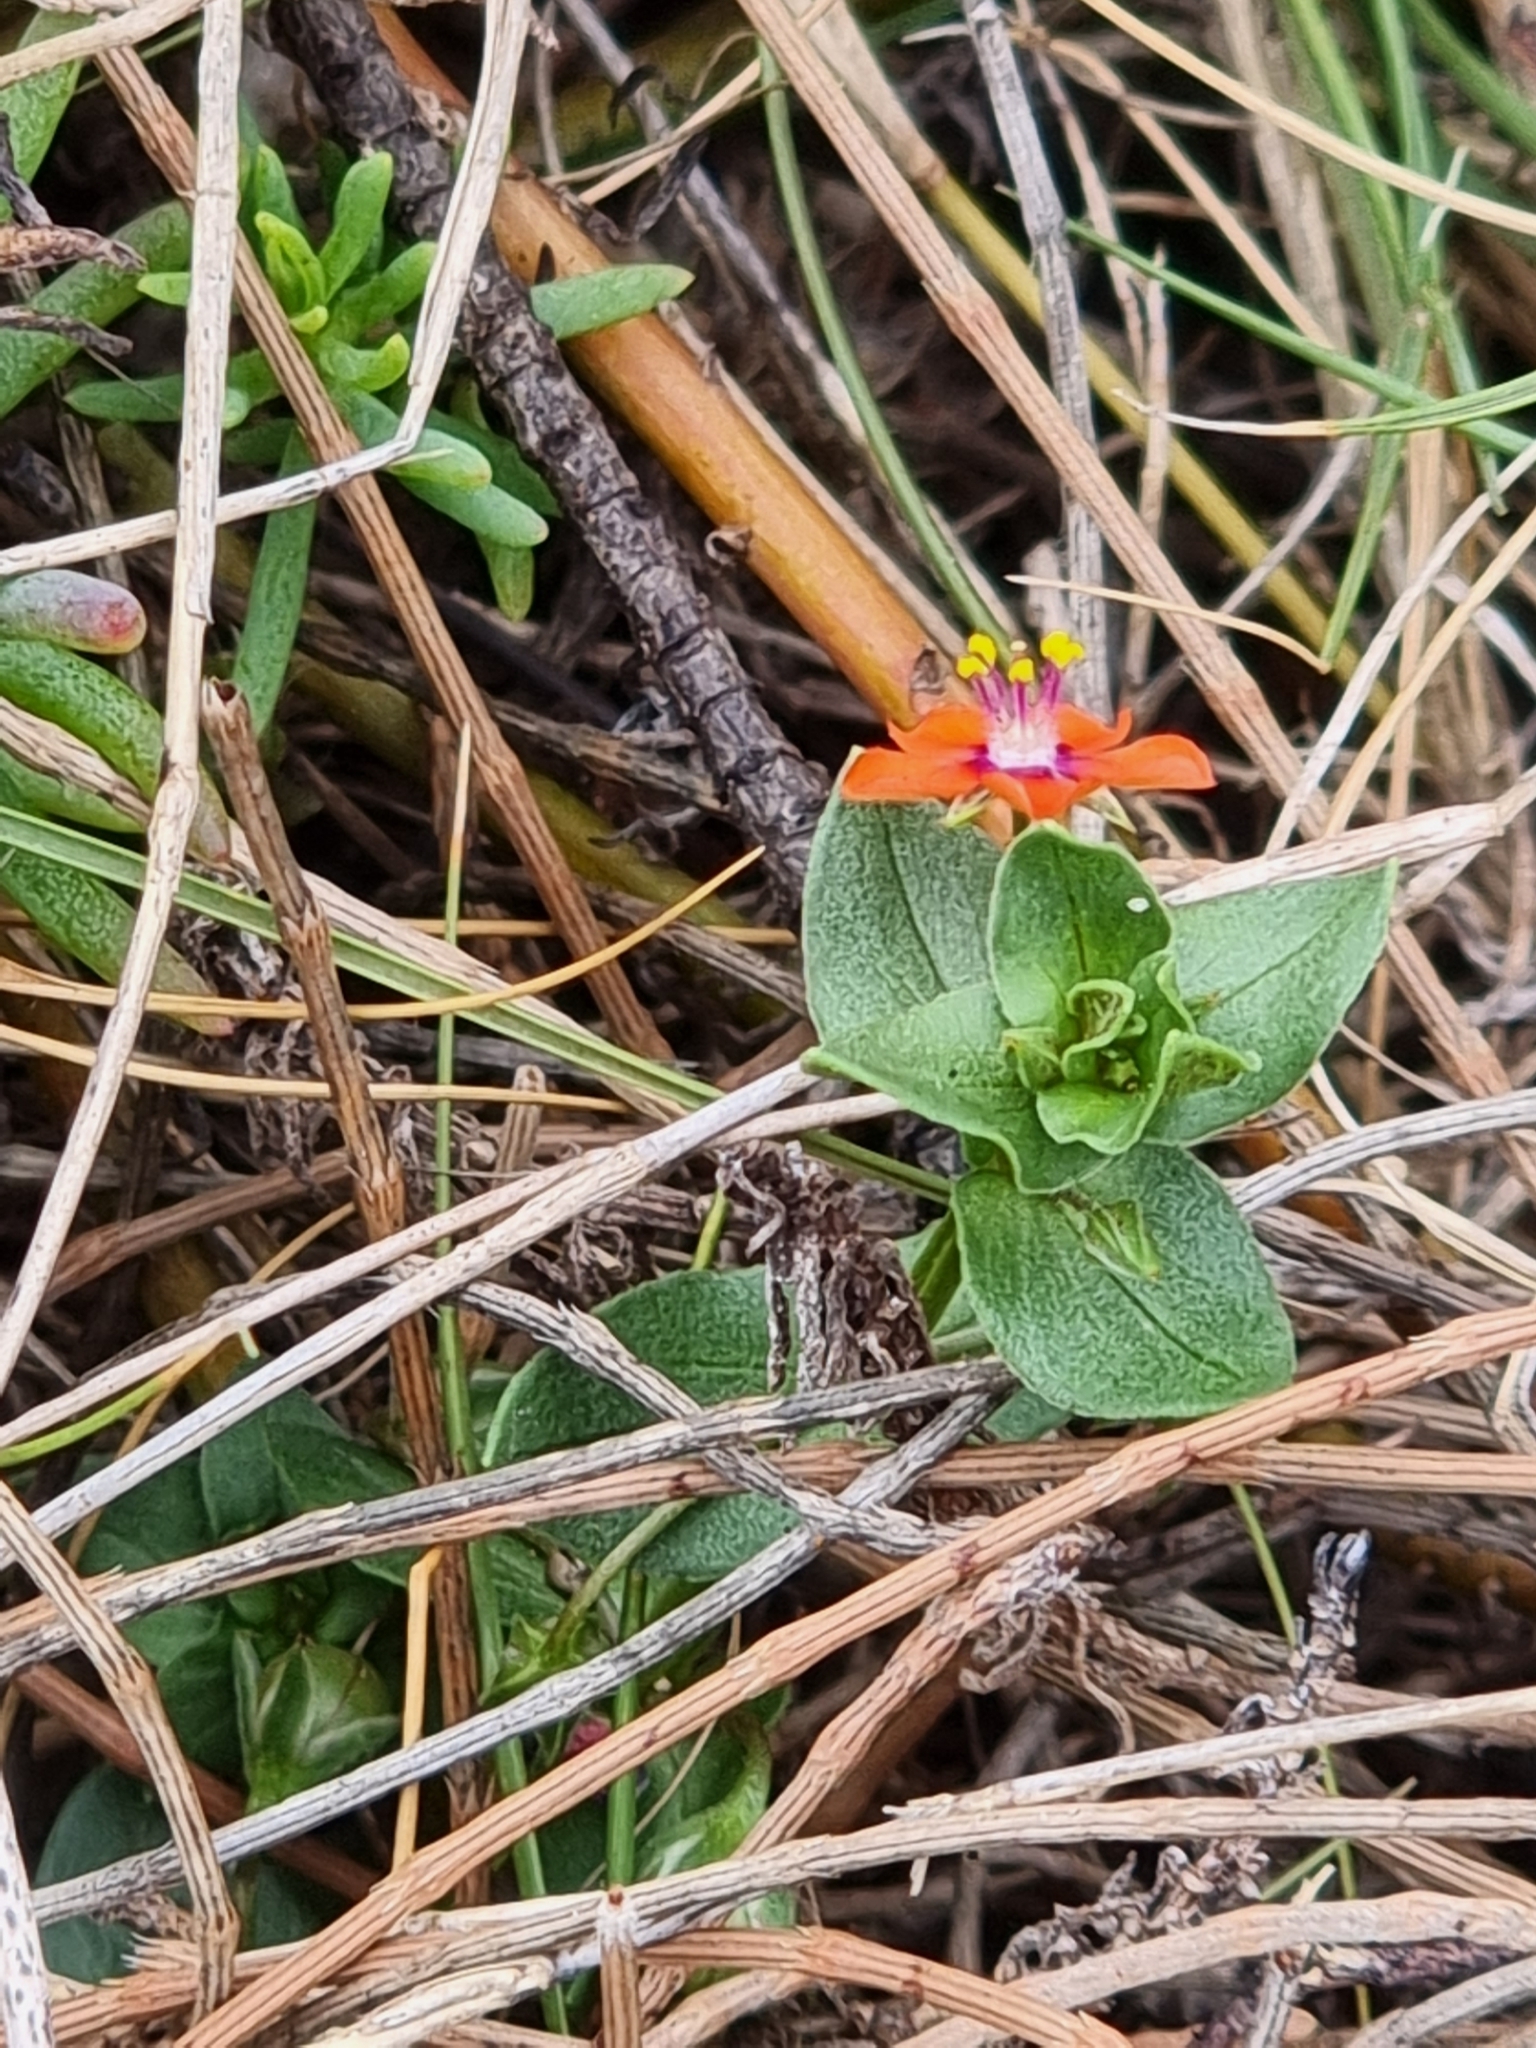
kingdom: Plantae
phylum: Tracheophyta
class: Magnoliopsida
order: Ericales
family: Primulaceae
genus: Lysimachia
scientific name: Lysimachia arvensis
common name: Scarlet pimpernel
